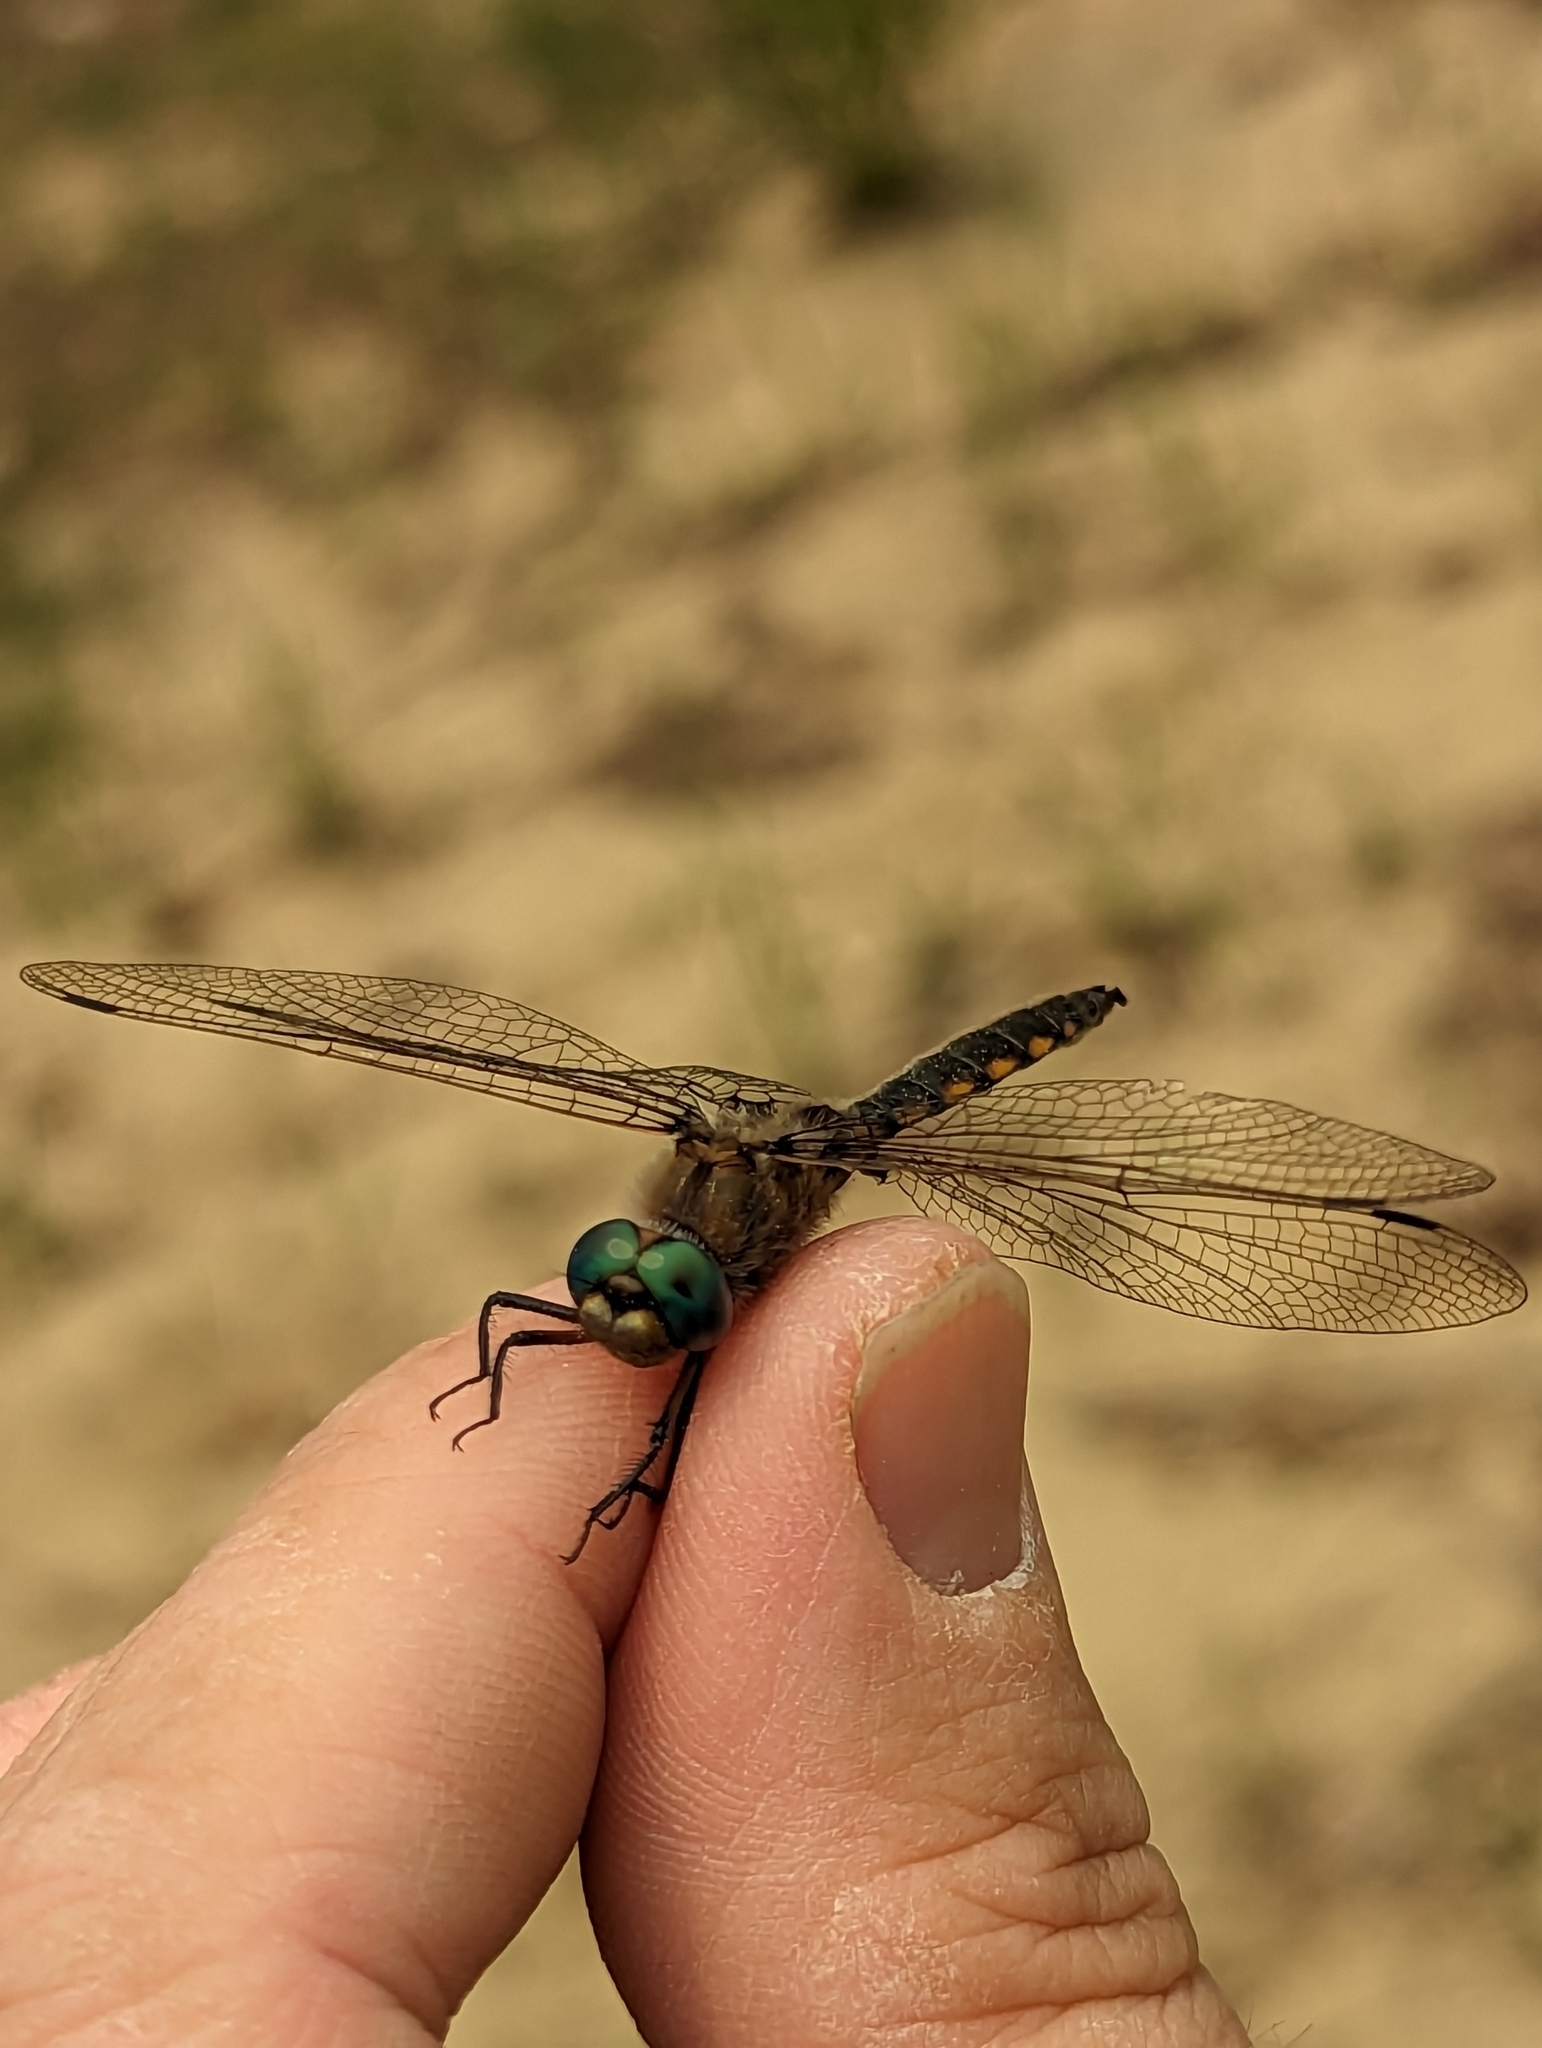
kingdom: Animalia
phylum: Arthropoda
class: Insecta
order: Odonata
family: Corduliidae
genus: Epitheca
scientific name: Epitheca canis
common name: Beaverpond baskettail
